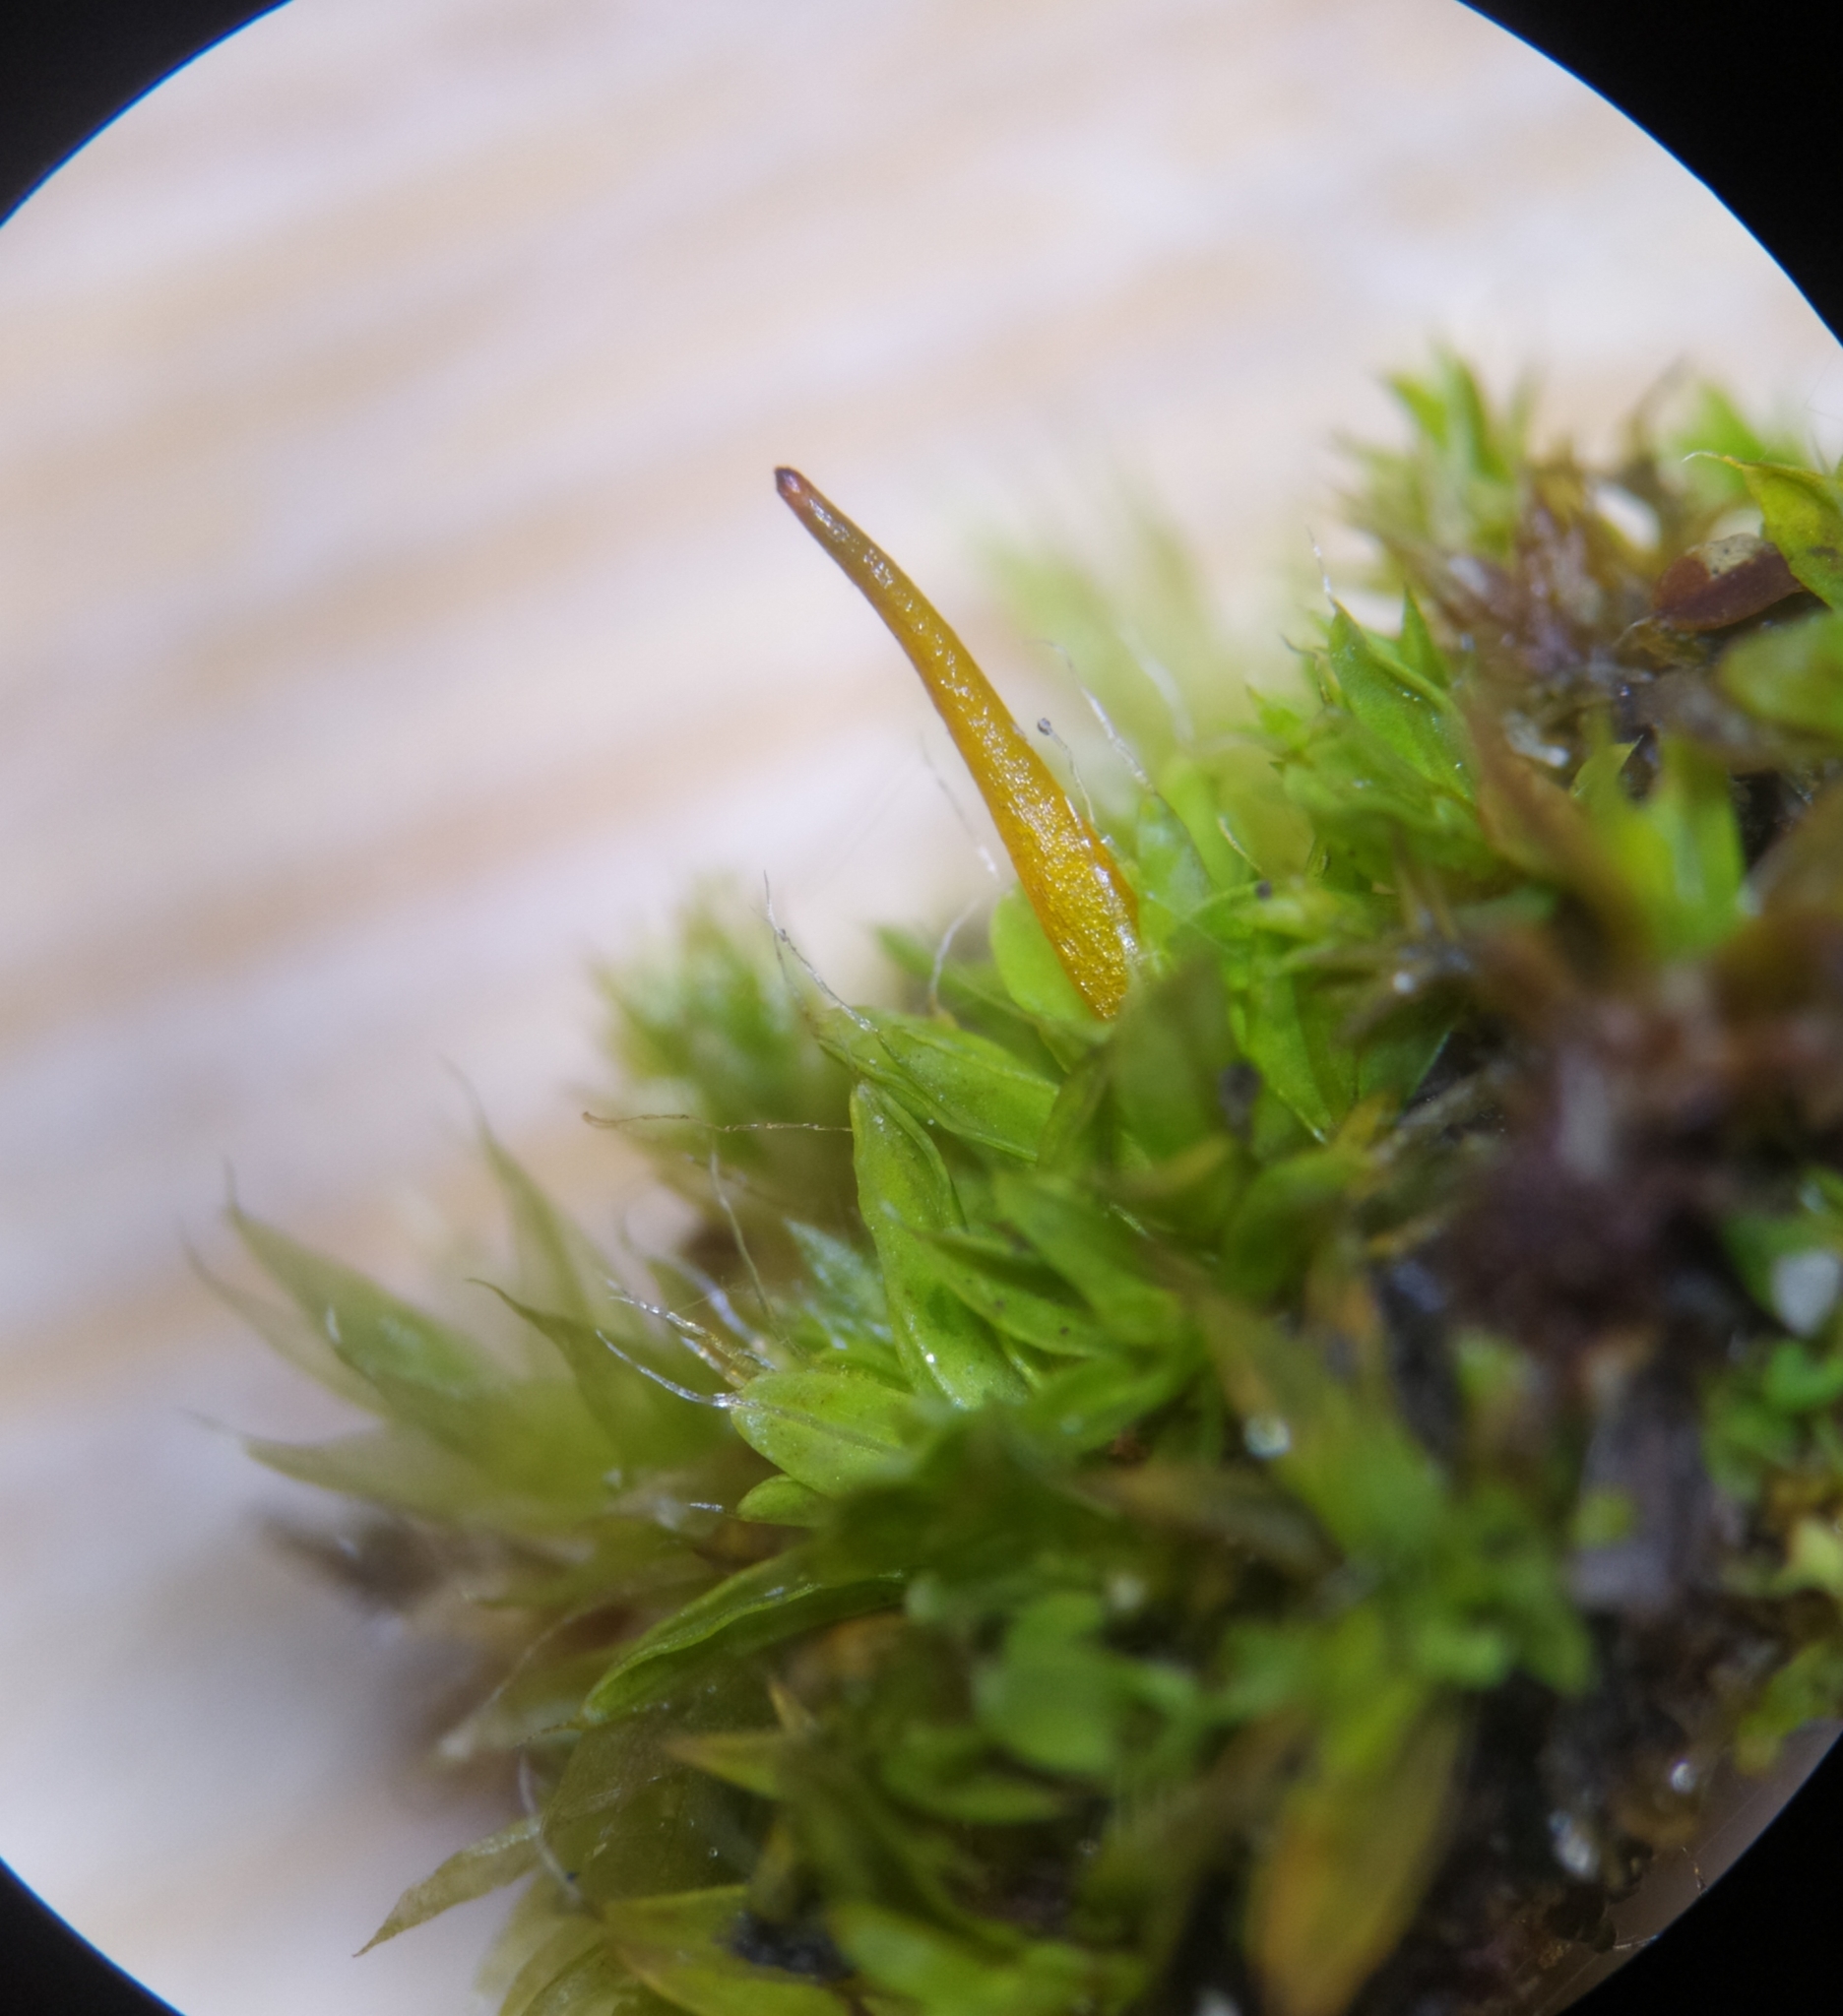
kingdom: Plantae
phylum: Bryophyta
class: Bryopsida
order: Pottiales
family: Pottiaceae
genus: Tortula
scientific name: Tortula muralis
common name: Wall screw-moss
